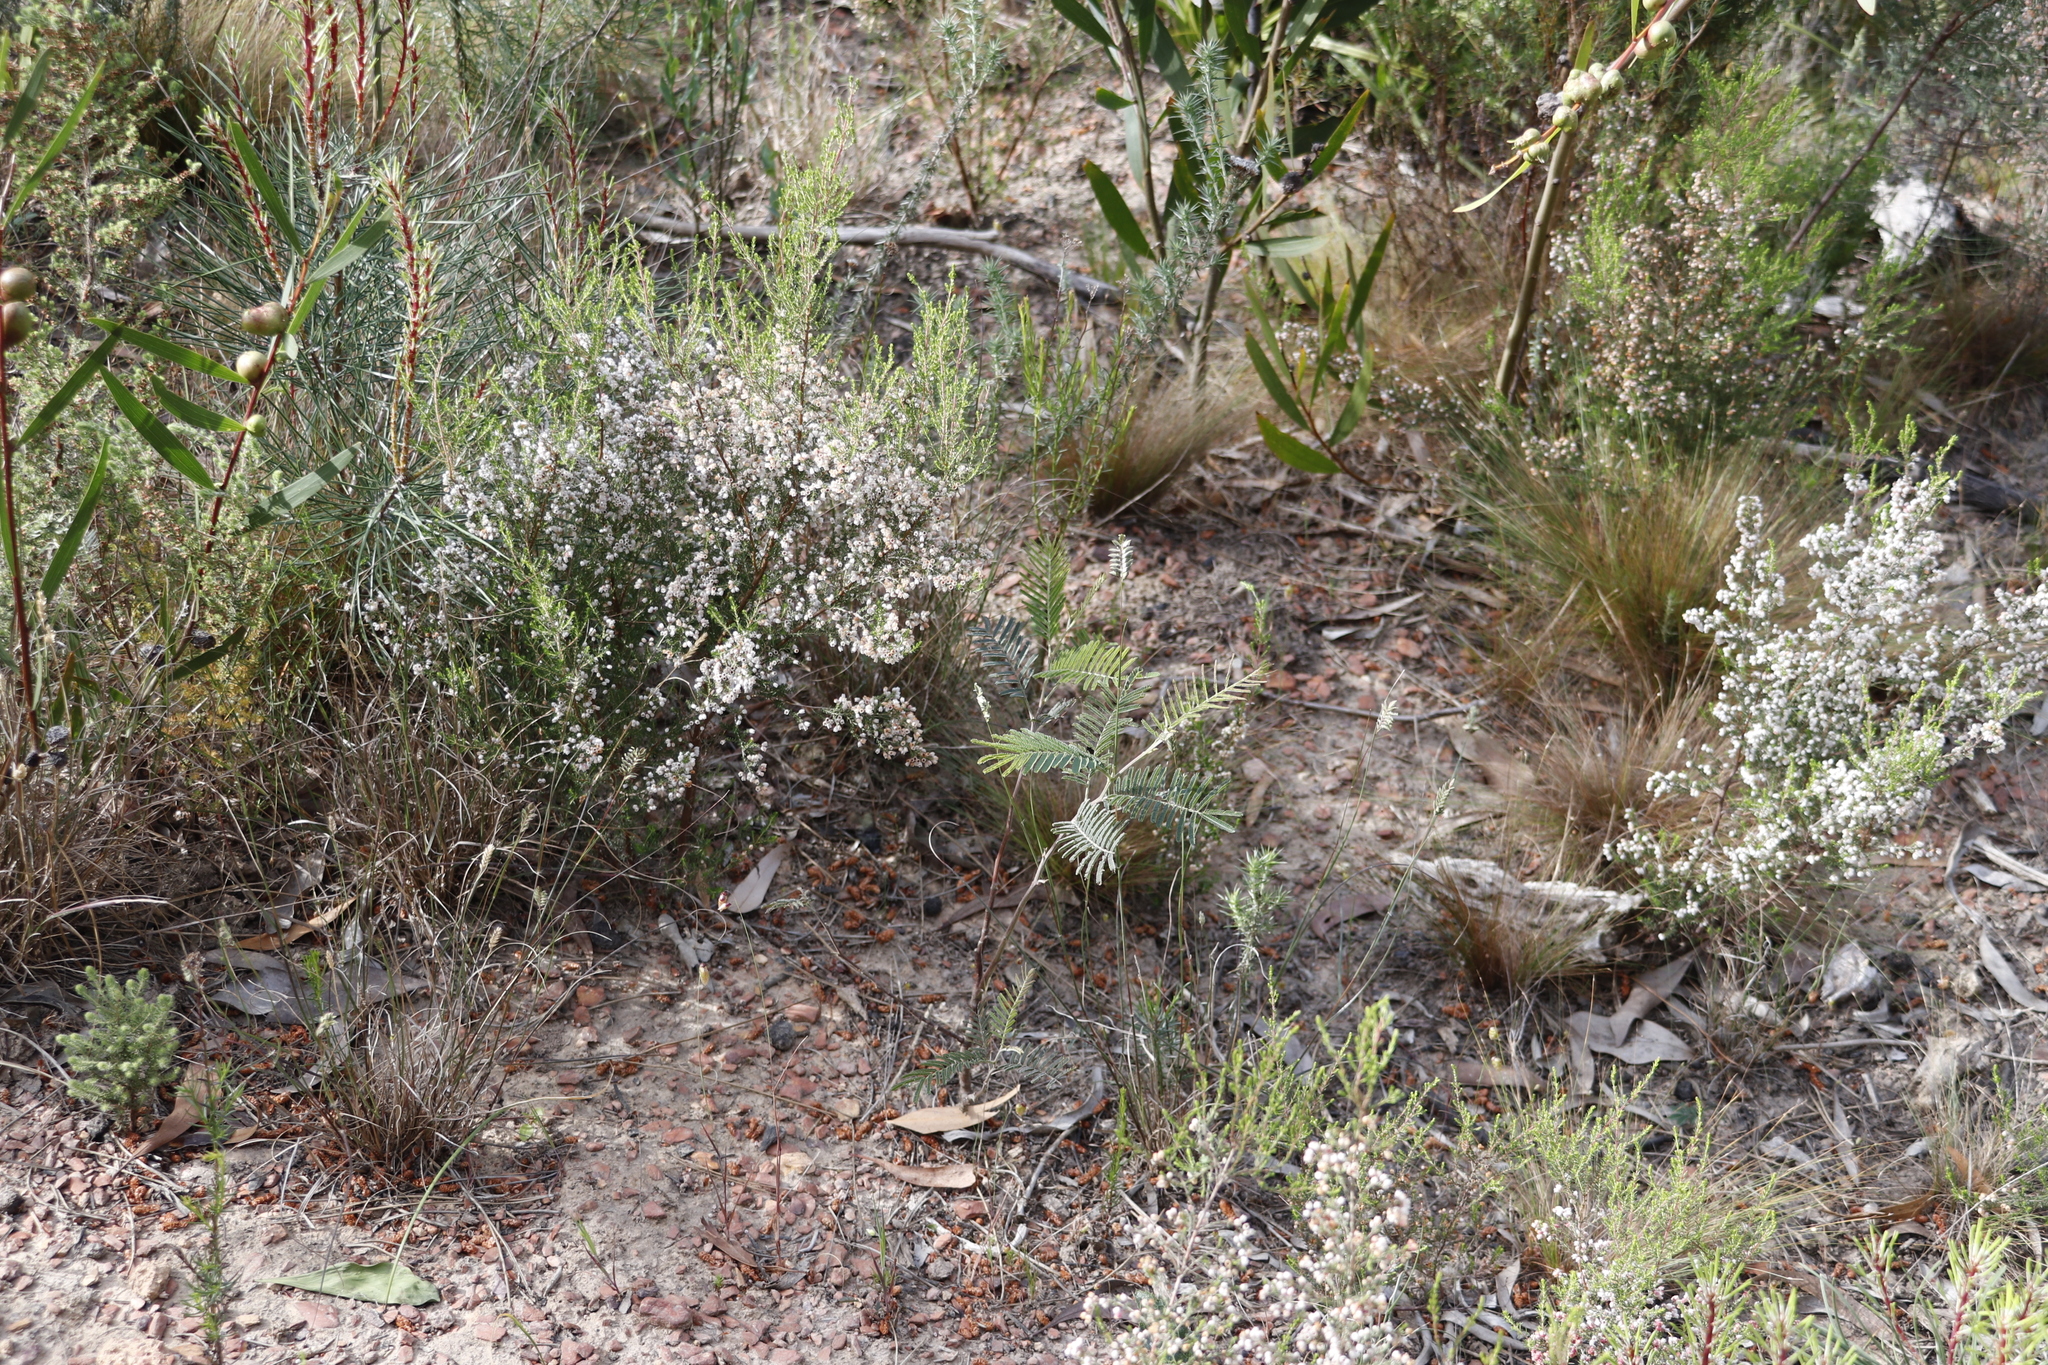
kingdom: Plantae
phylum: Tracheophyta
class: Magnoliopsida
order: Fabales
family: Fabaceae
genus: Acacia
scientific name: Acacia mearnsii
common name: Black wattle
